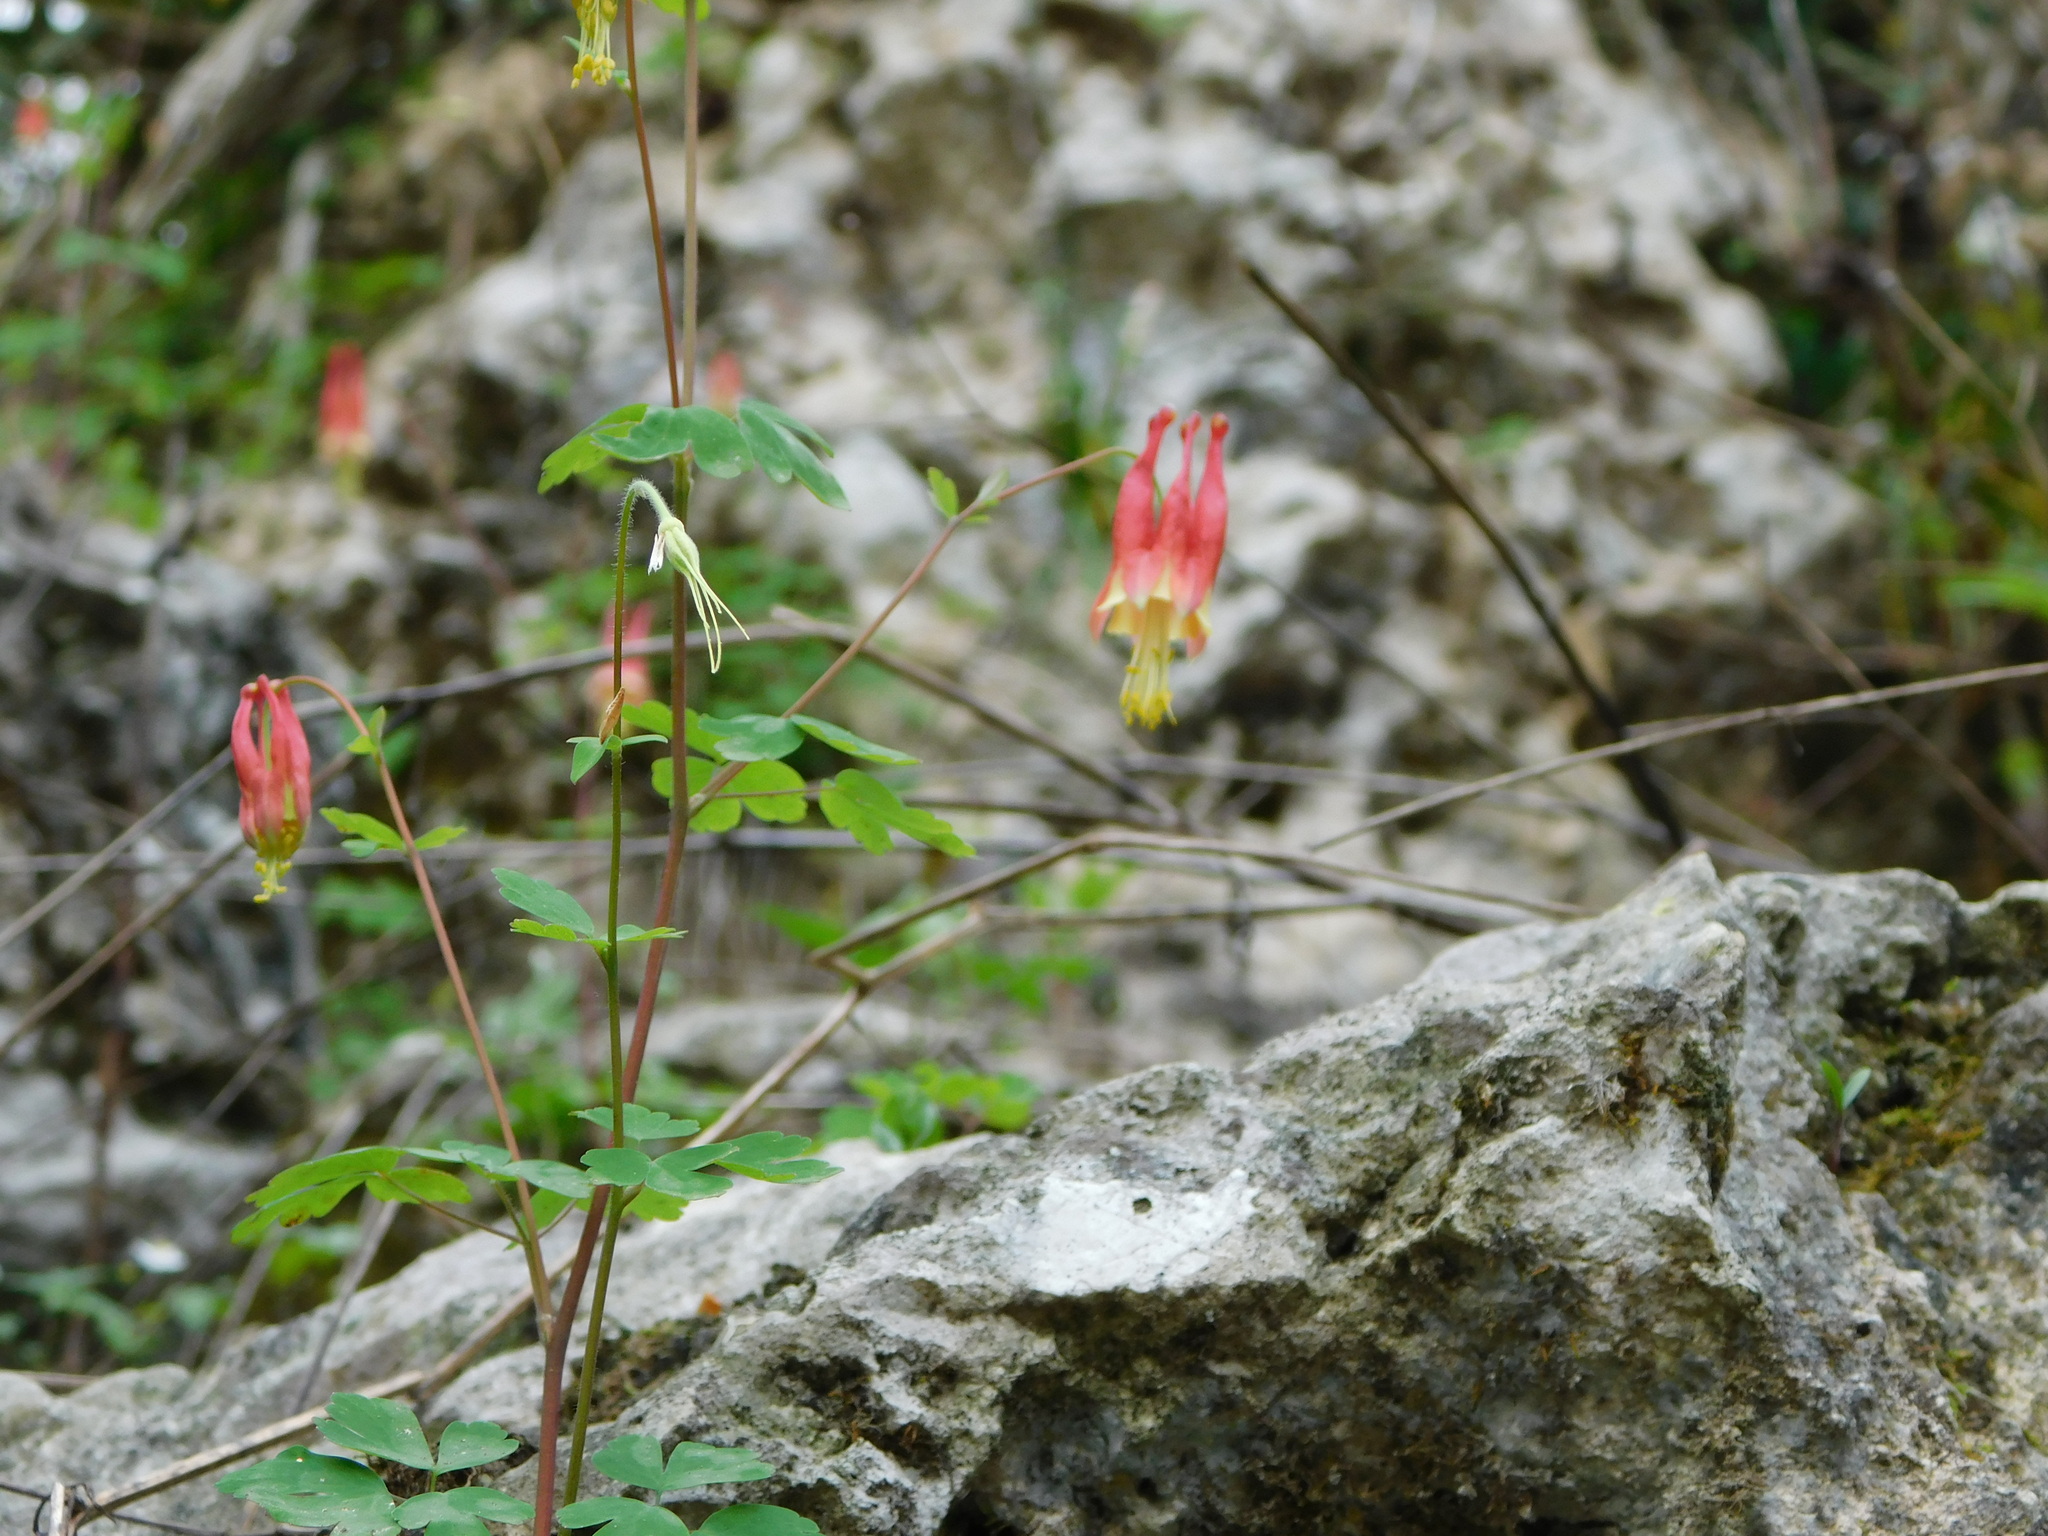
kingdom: Plantae
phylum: Tracheophyta
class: Magnoliopsida
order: Ranunculales
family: Ranunculaceae
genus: Aquilegia
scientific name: Aquilegia canadensis
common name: American columbine
